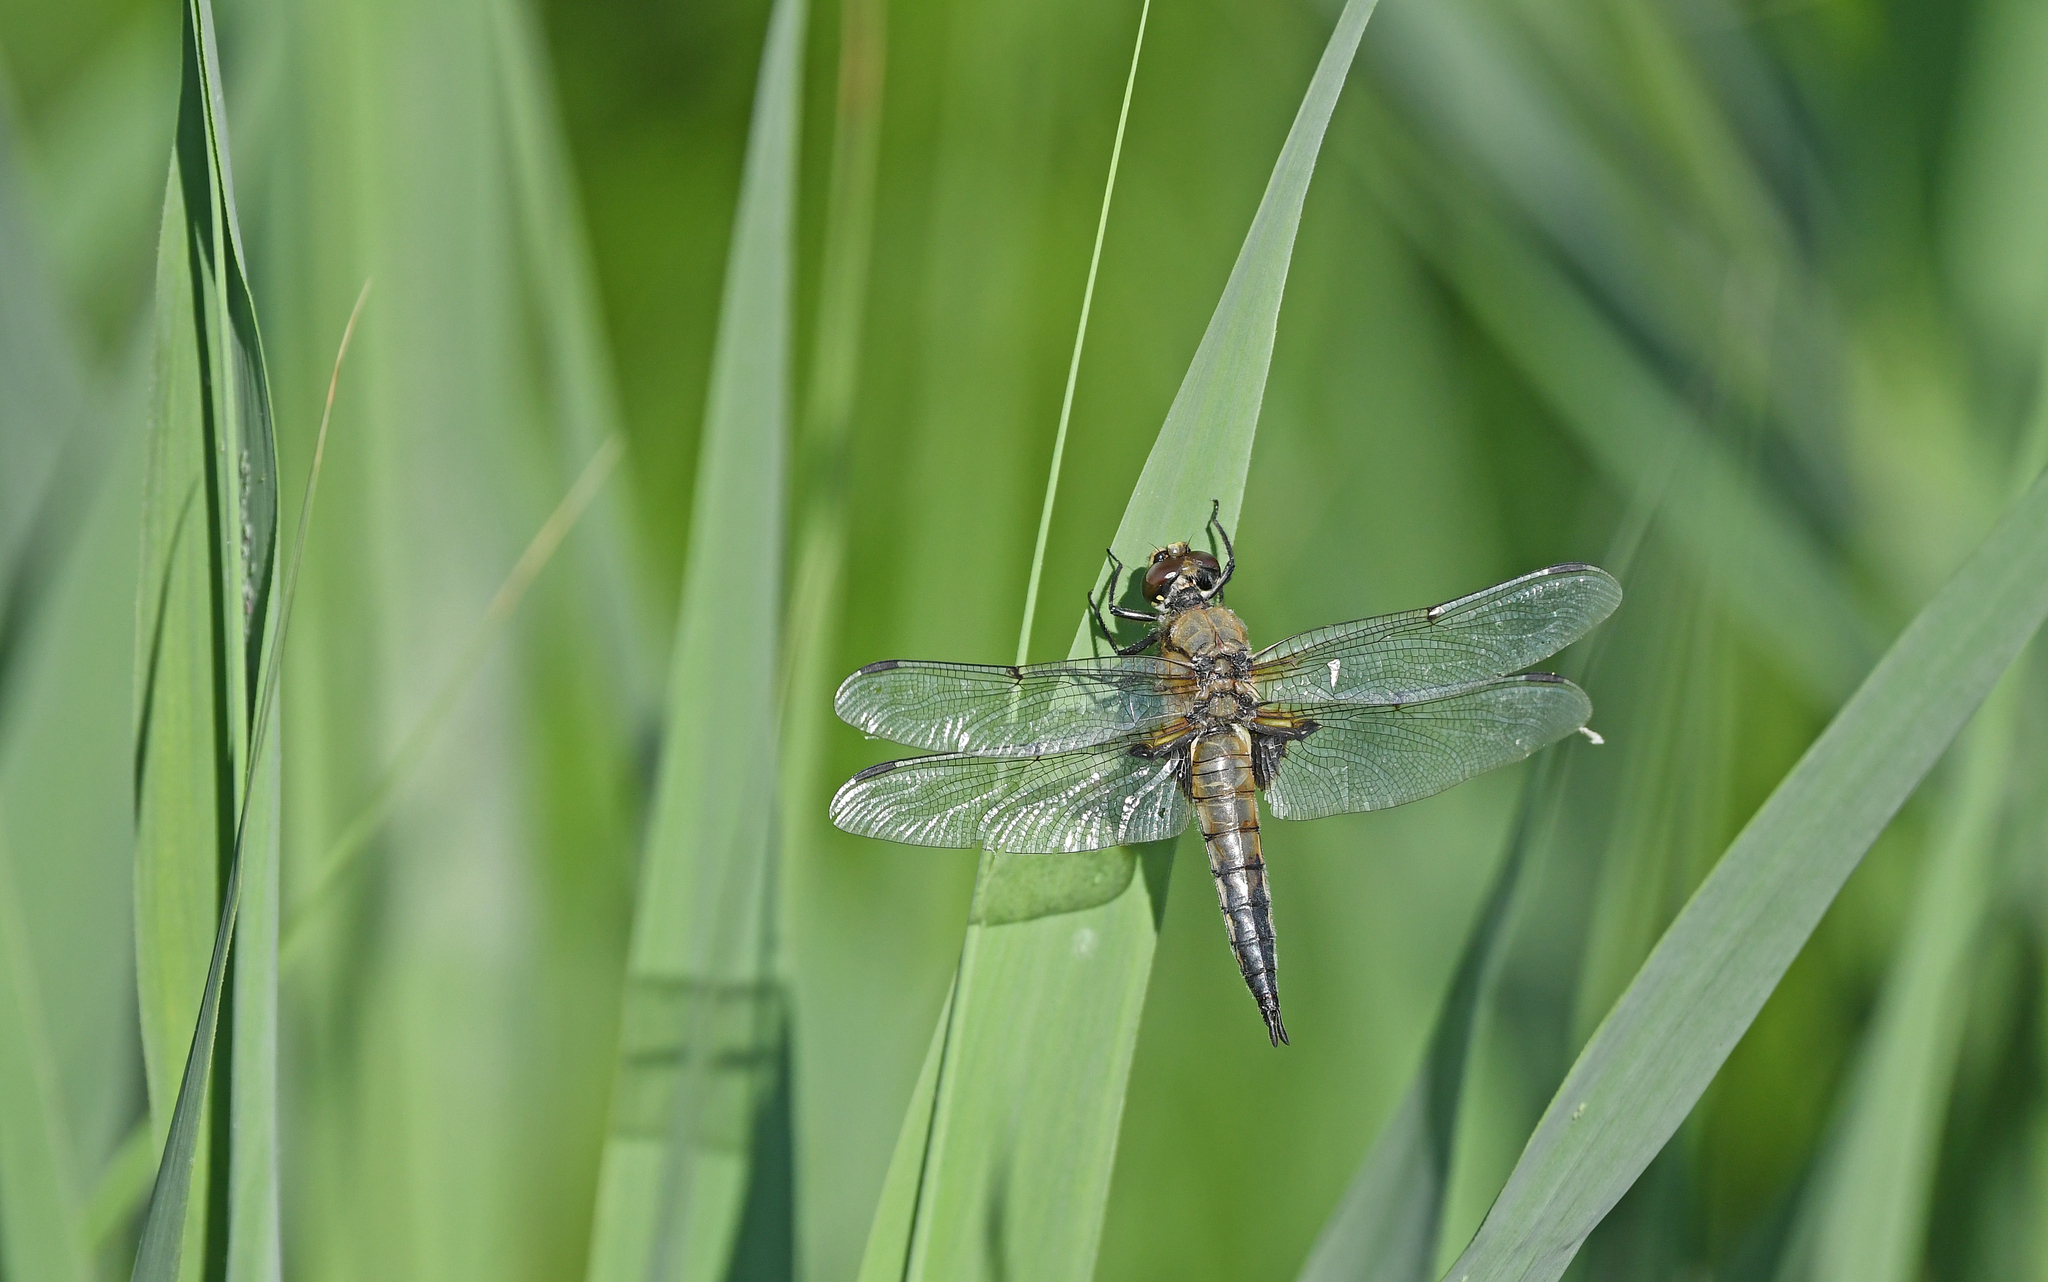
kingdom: Animalia
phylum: Arthropoda
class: Insecta
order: Odonata
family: Libellulidae
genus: Libellula
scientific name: Libellula quadrimaculata
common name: Four-spotted chaser
